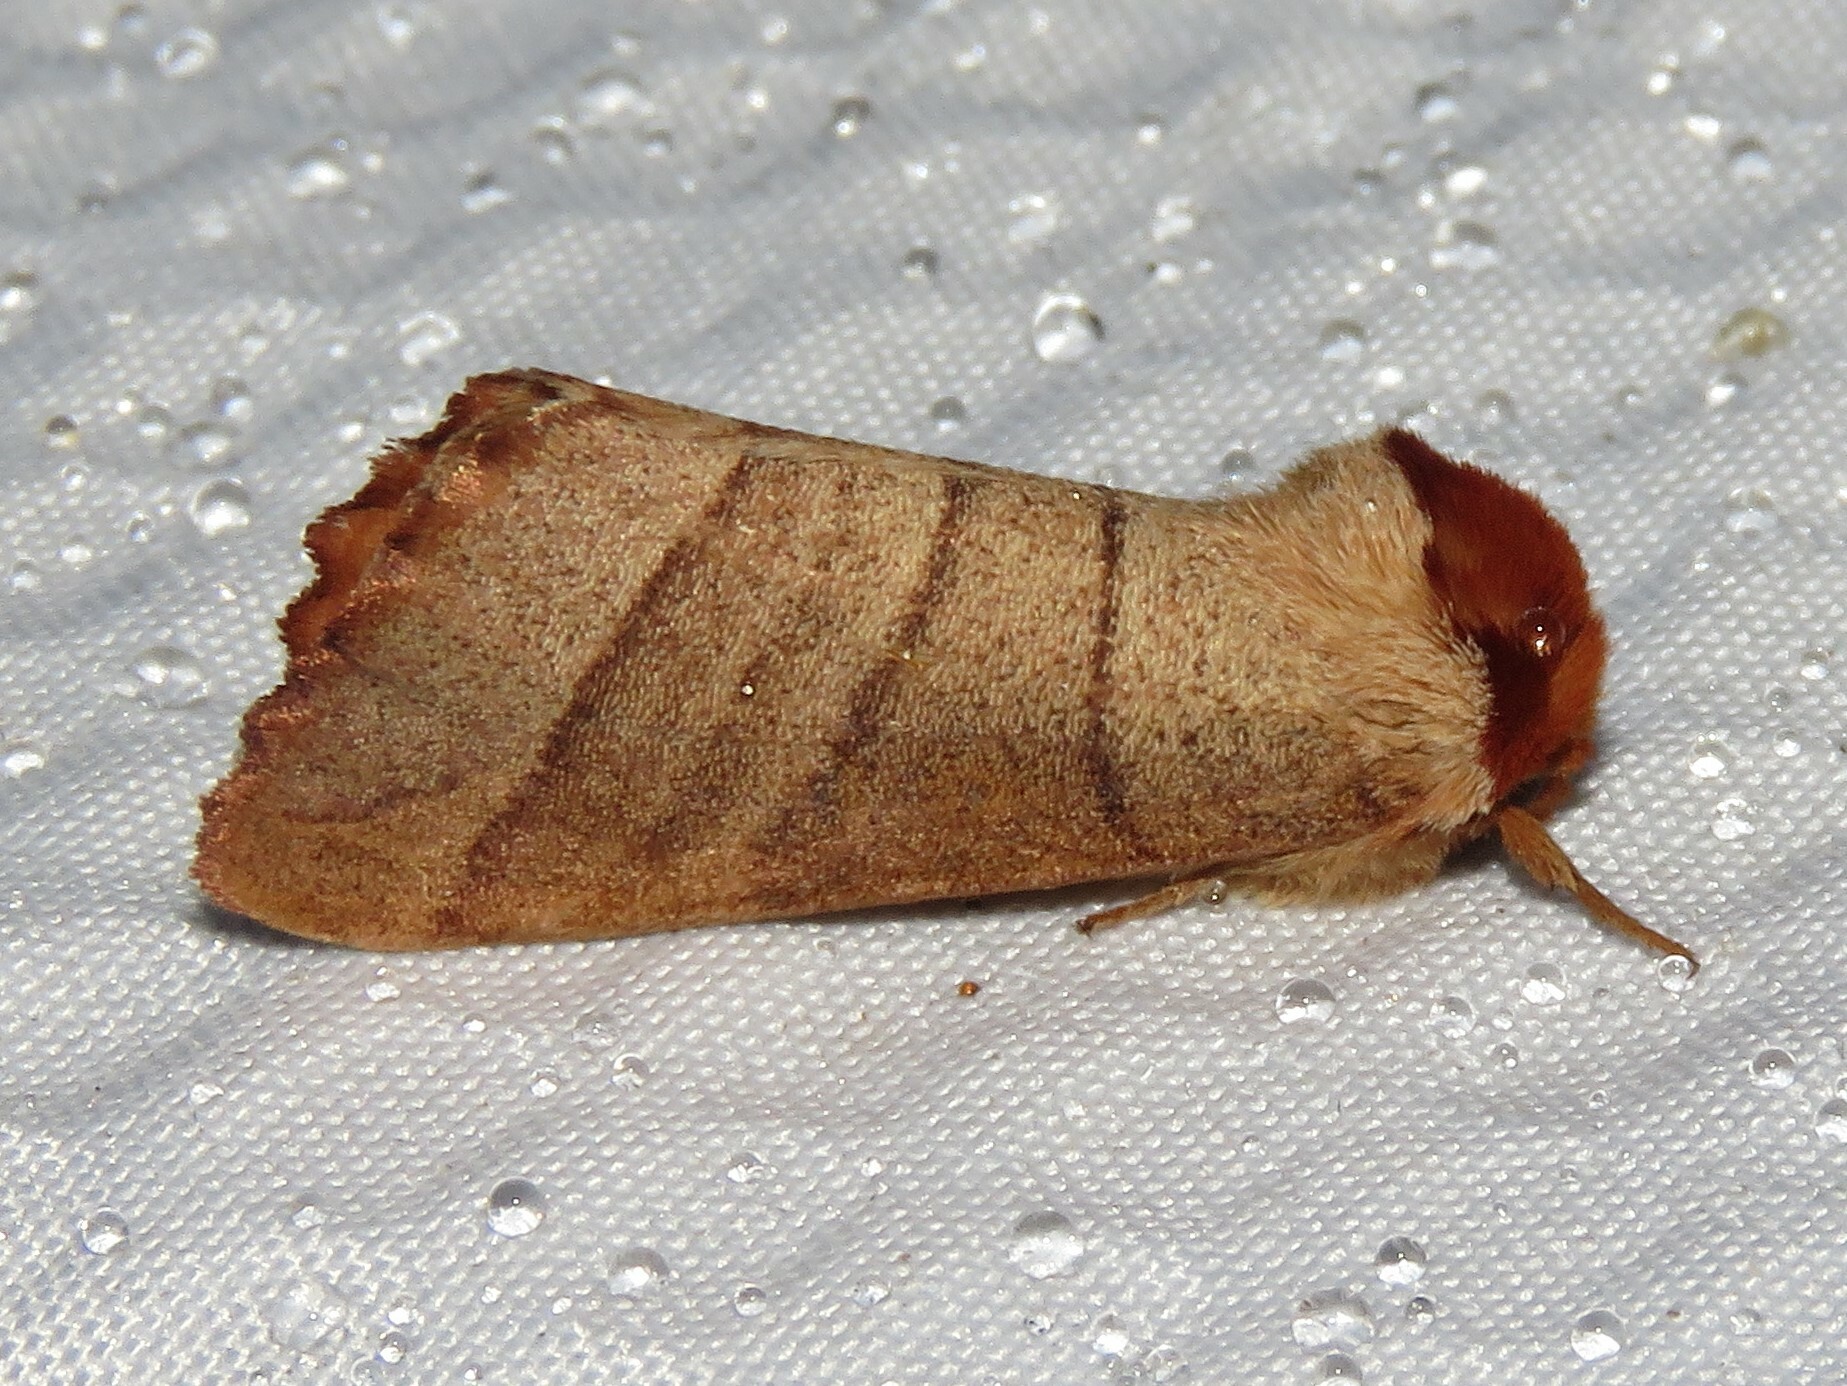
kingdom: Animalia
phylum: Arthropoda
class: Insecta
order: Lepidoptera
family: Notodontidae
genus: Datana
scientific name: Datana ministra
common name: Yellow-necked caterpillar moth
